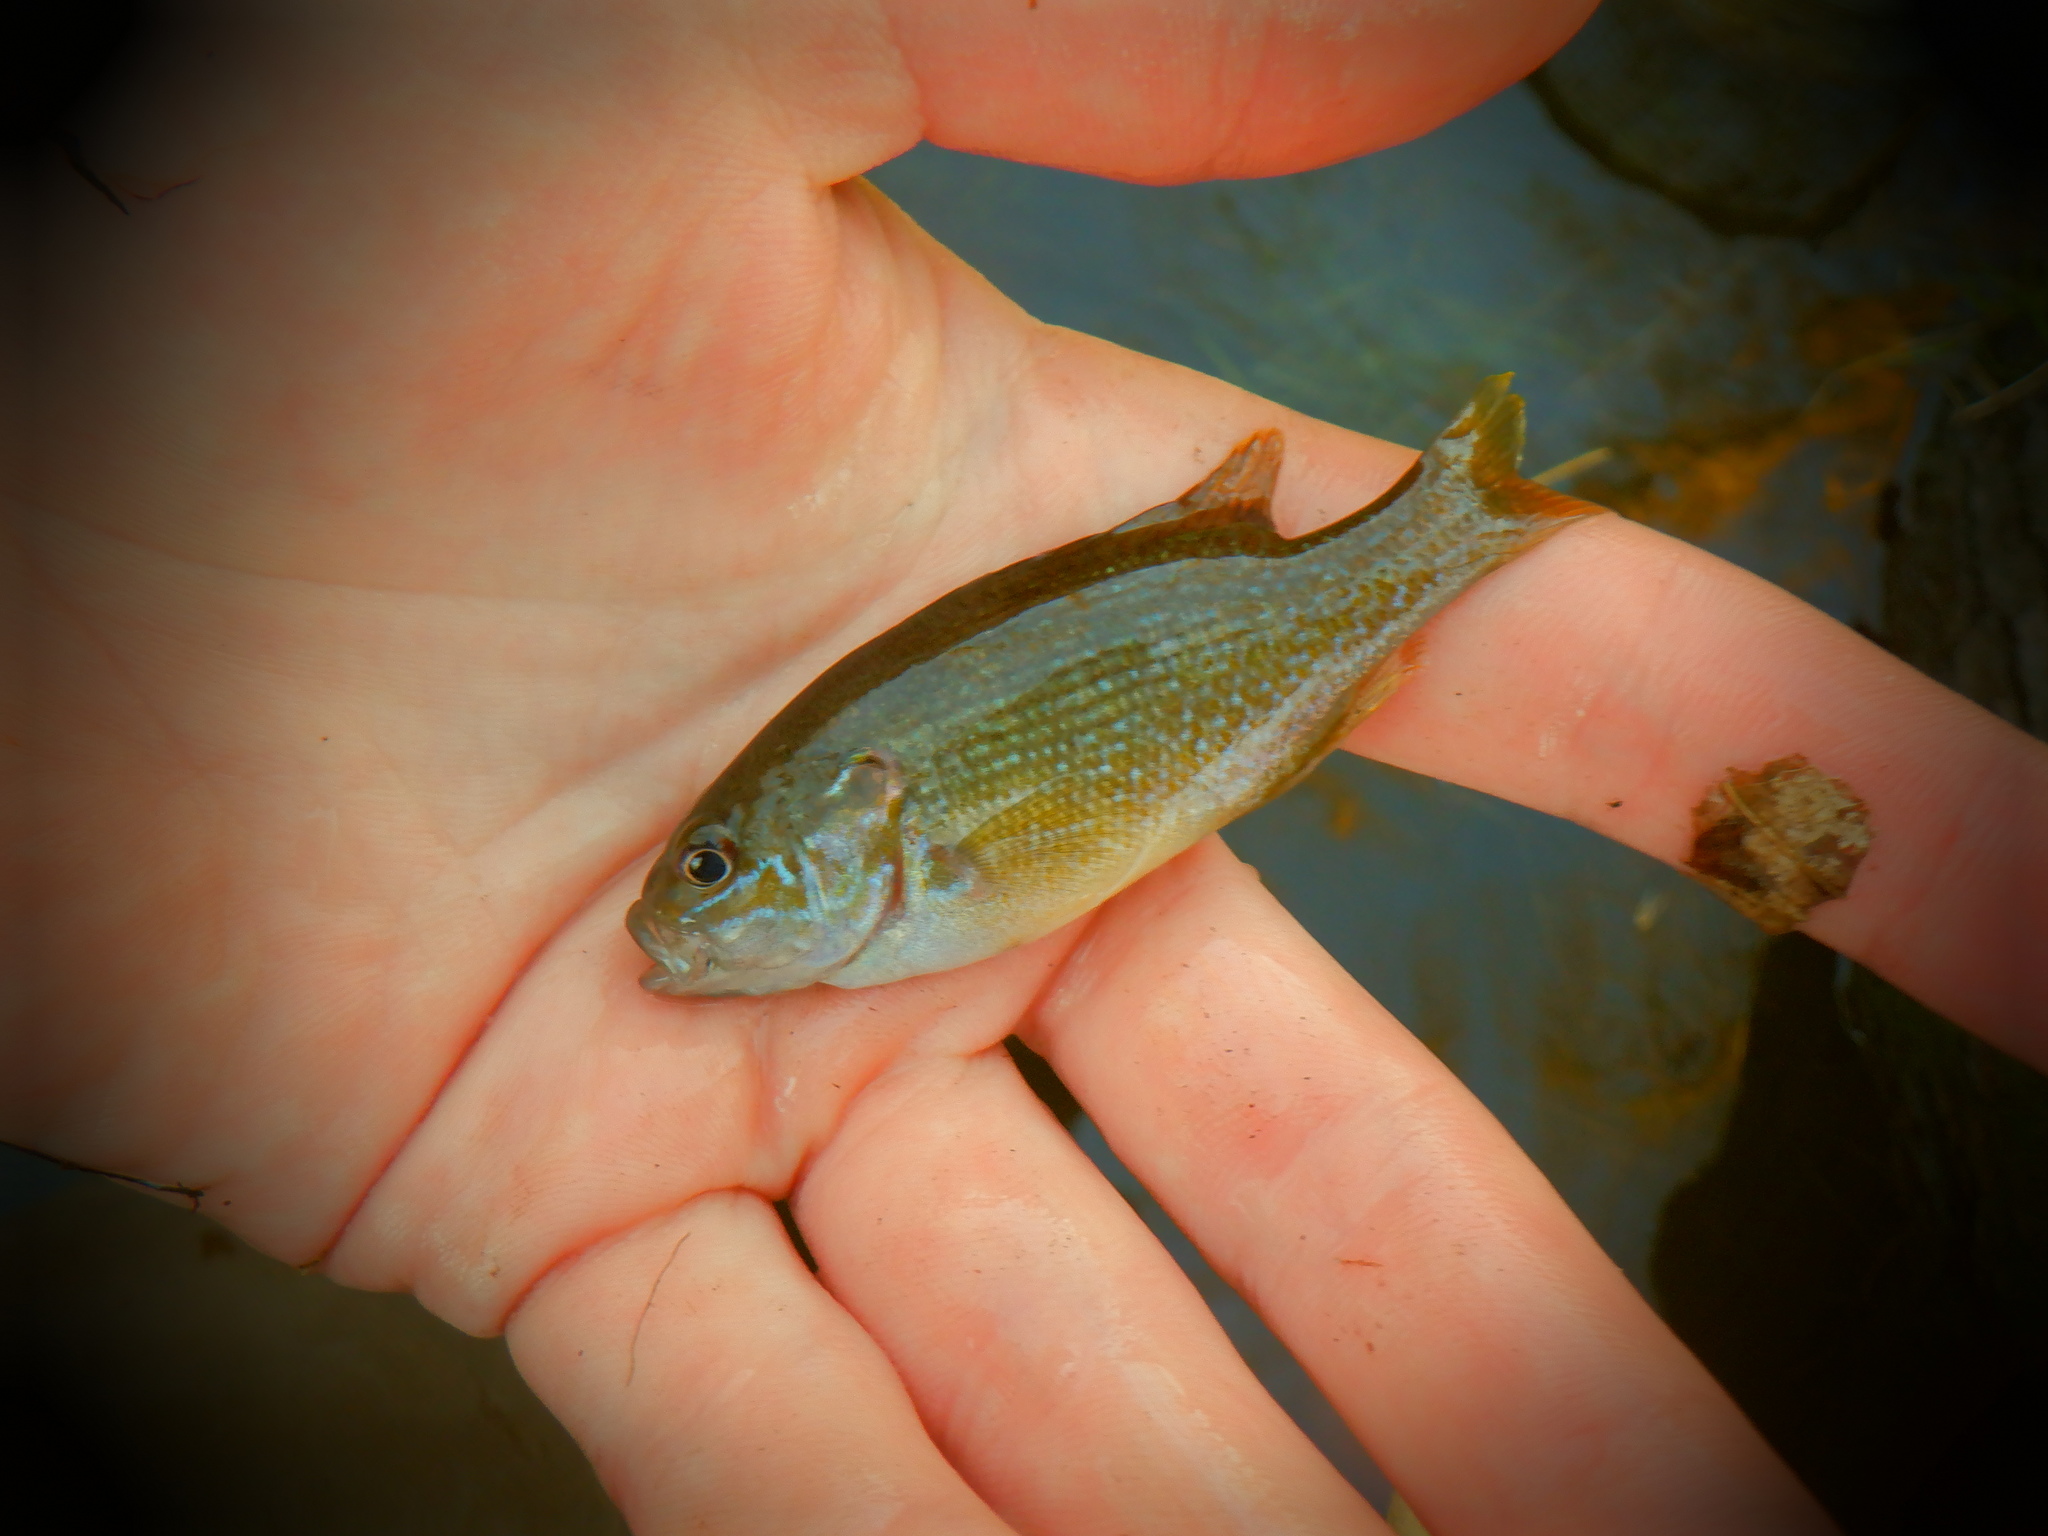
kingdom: Animalia
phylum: Chordata
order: Perciformes
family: Centrarchidae
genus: Lepomis
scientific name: Lepomis cyanellus
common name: Green sunfish
